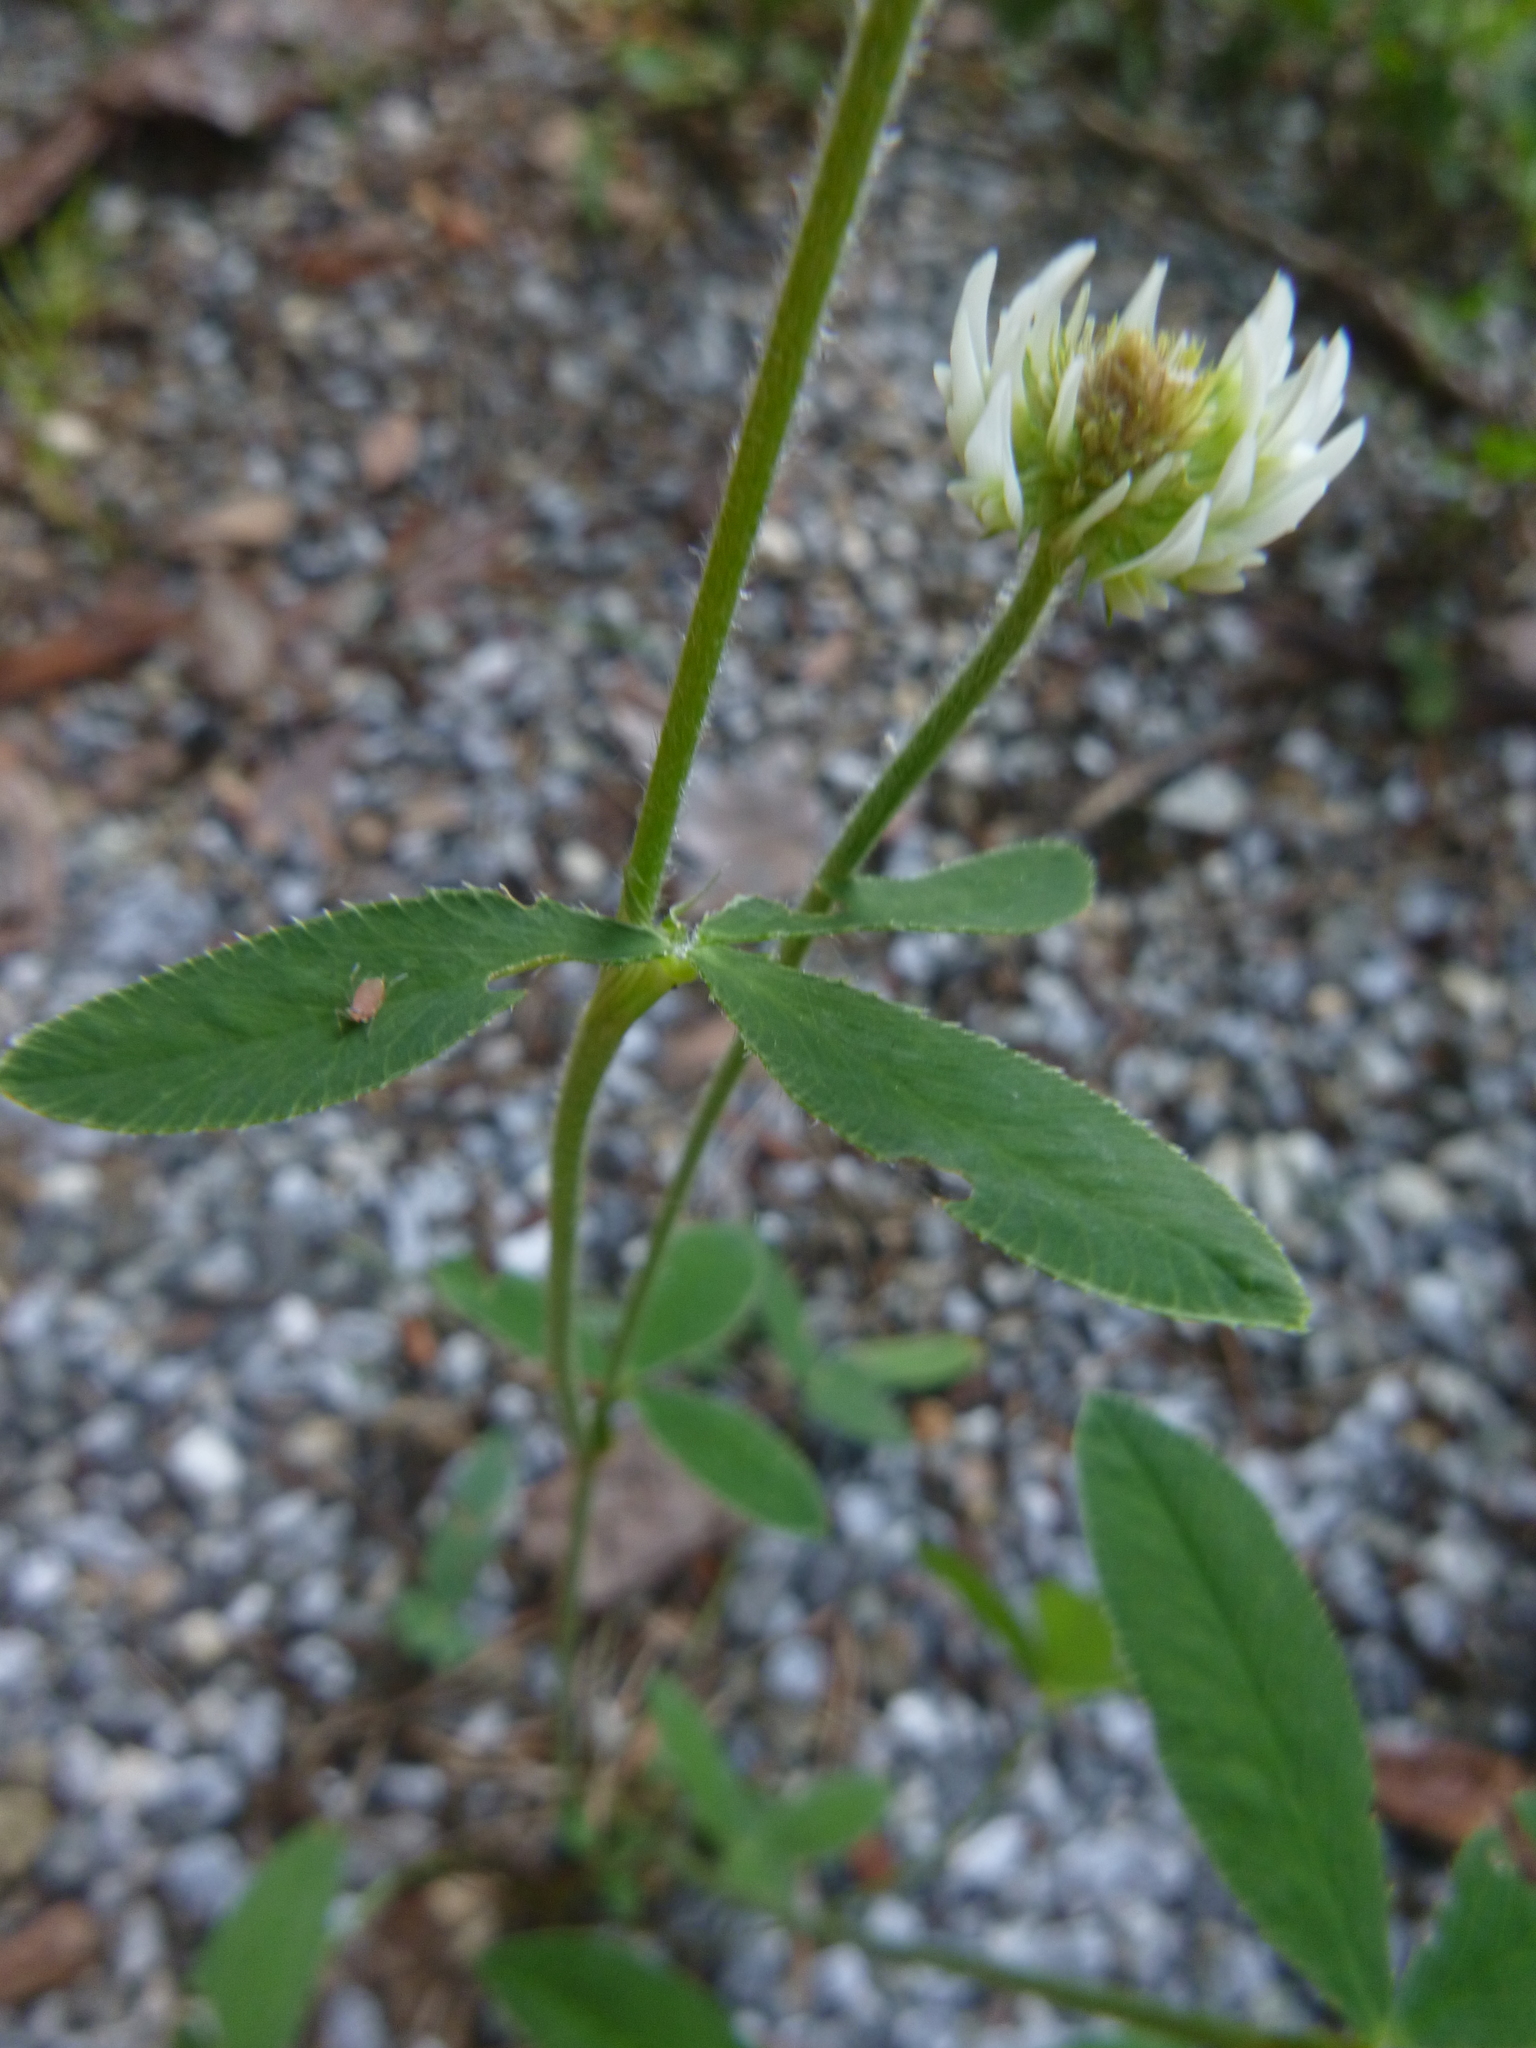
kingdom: Plantae
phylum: Tracheophyta
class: Magnoliopsida
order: Fabales
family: Fabaceae
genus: Trifolium
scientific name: Trifolium montanum
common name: Mountain clover
